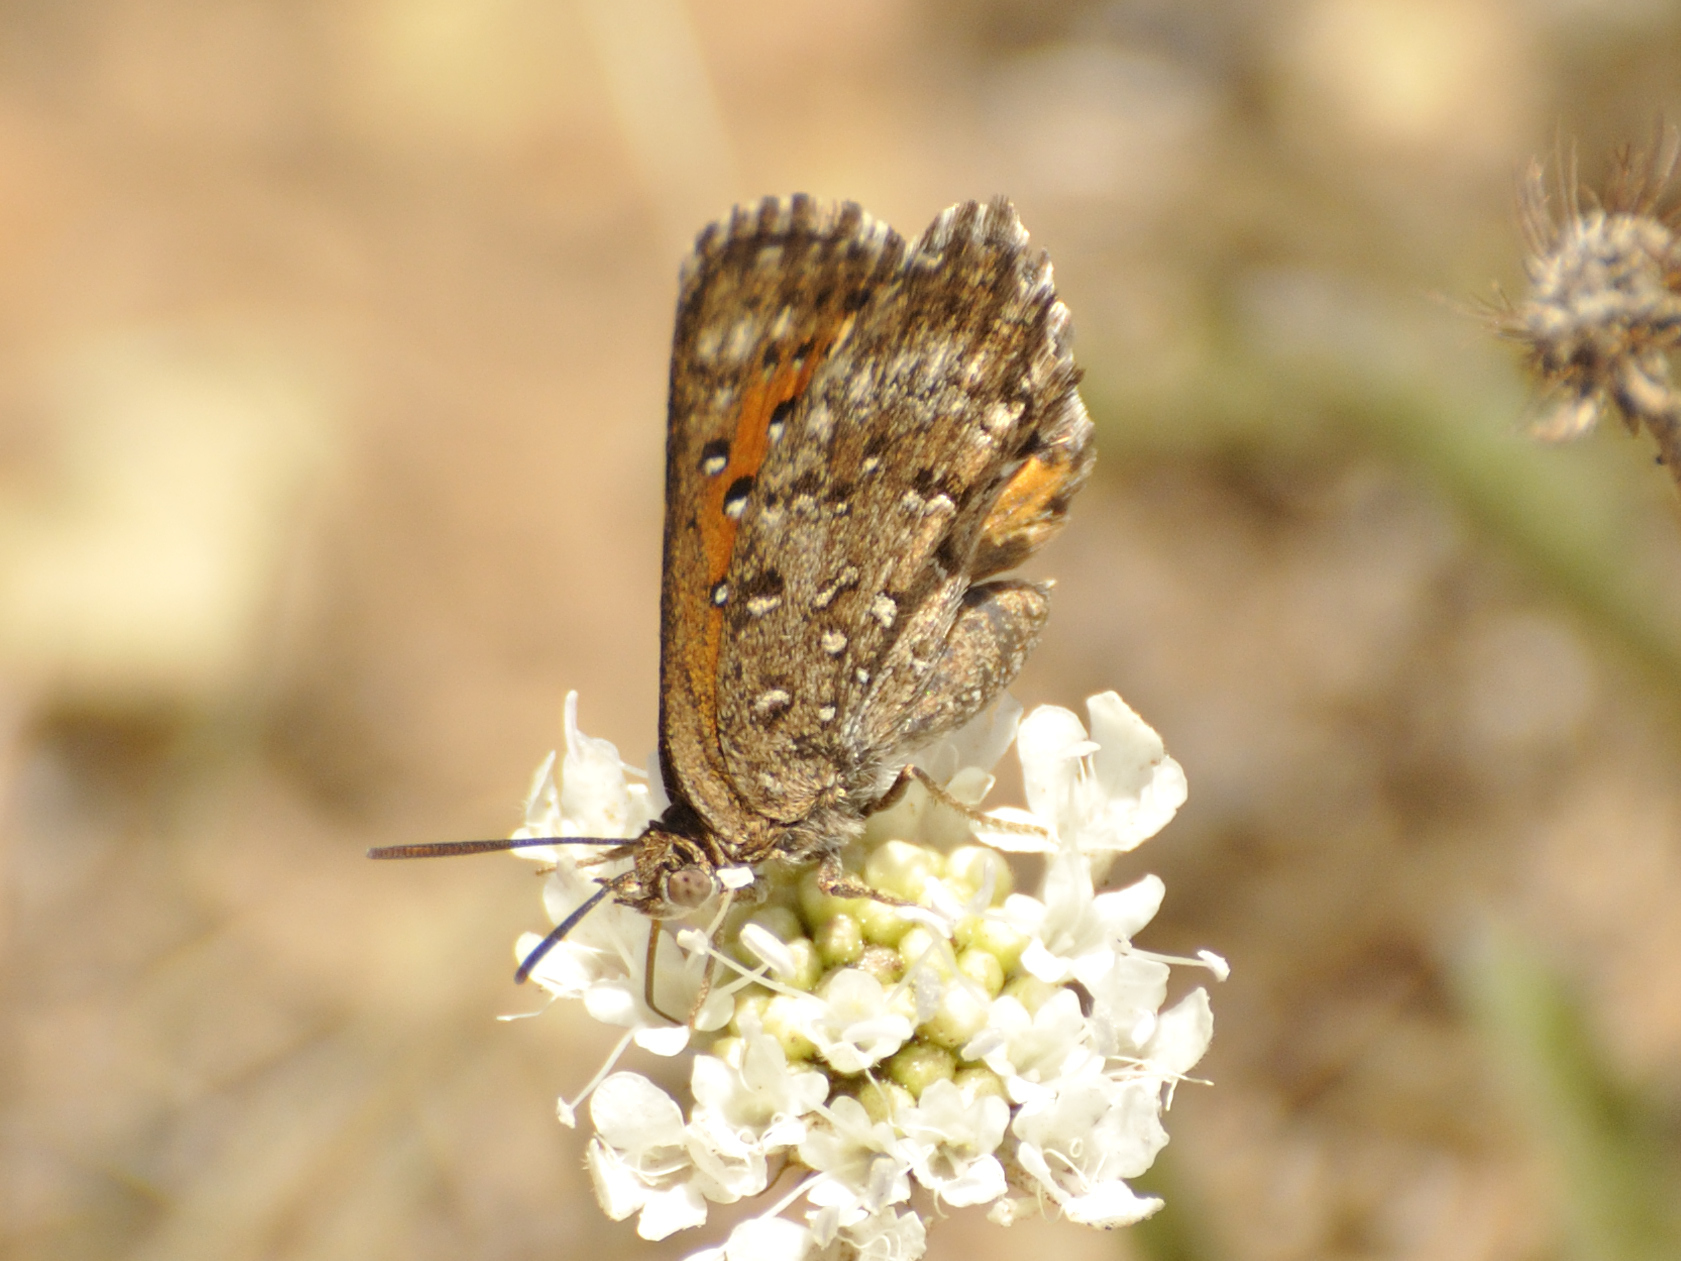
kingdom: Animalia
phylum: Arthropoda
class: Insecta
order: Lepidoptera
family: Lycaenidae
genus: Aloeides
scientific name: Aloeides maluti
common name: Maluti copper
